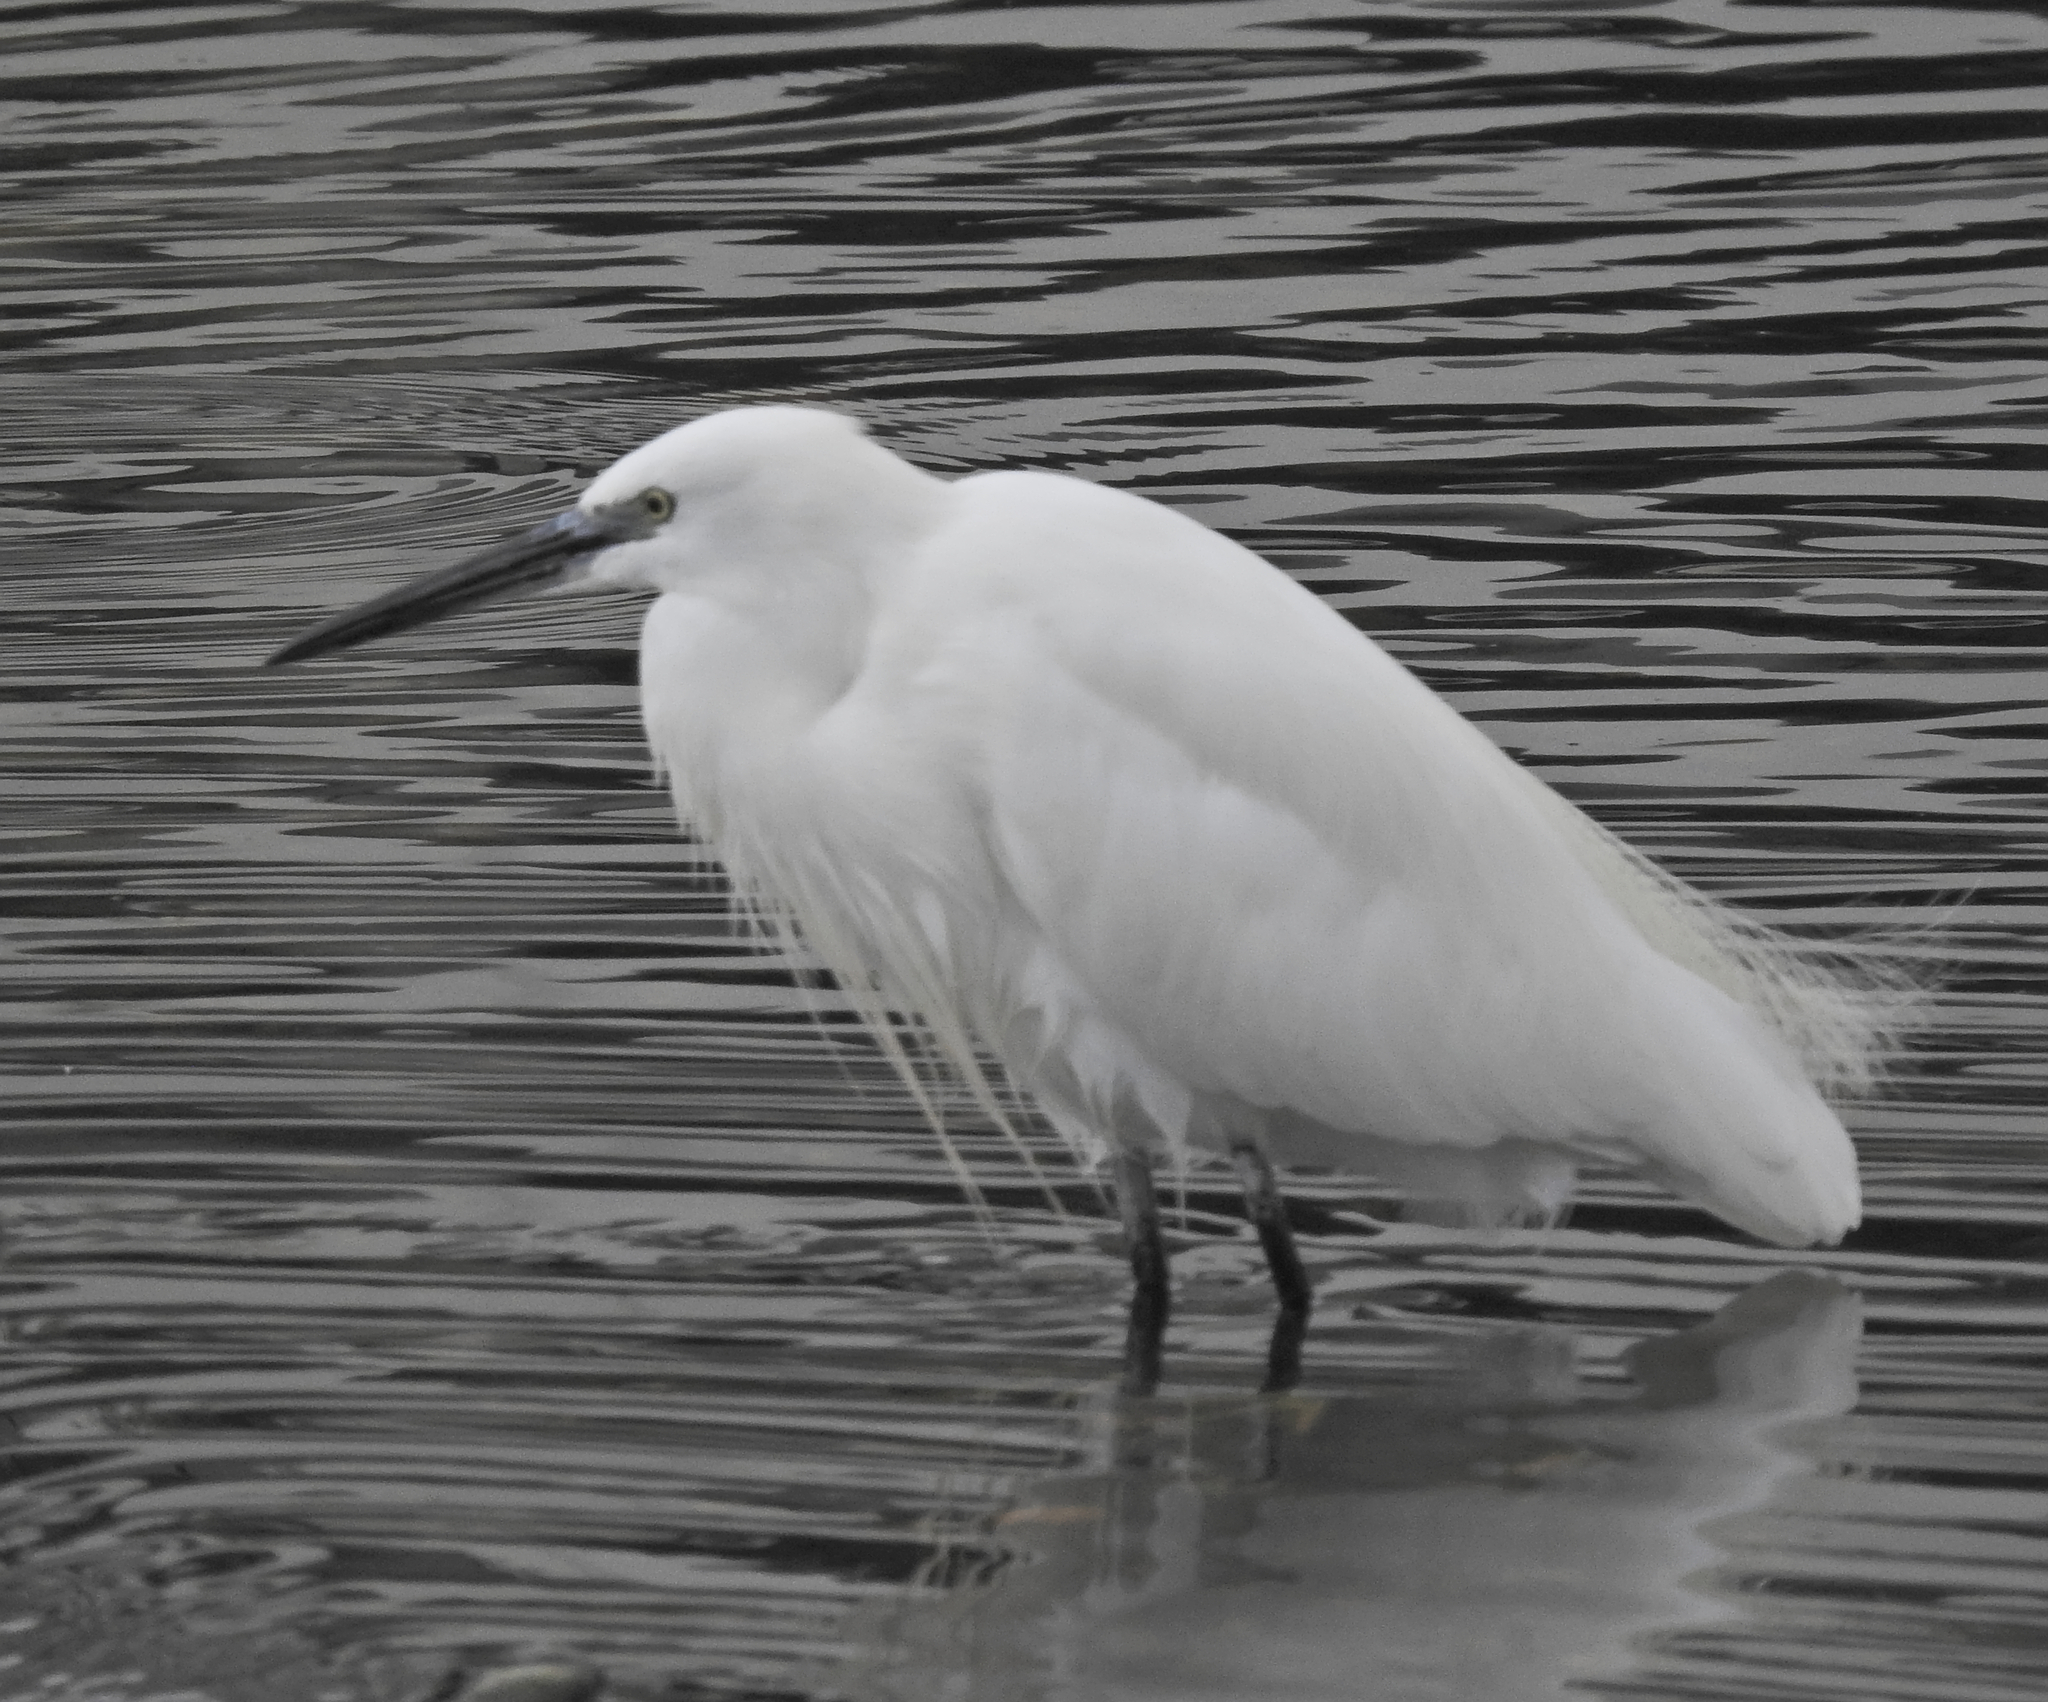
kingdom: Animalia
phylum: Chordata
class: Aves
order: Pelecaniformes
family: Ardeidae
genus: Egretta
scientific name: Egretta garzetta
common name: Little egret
